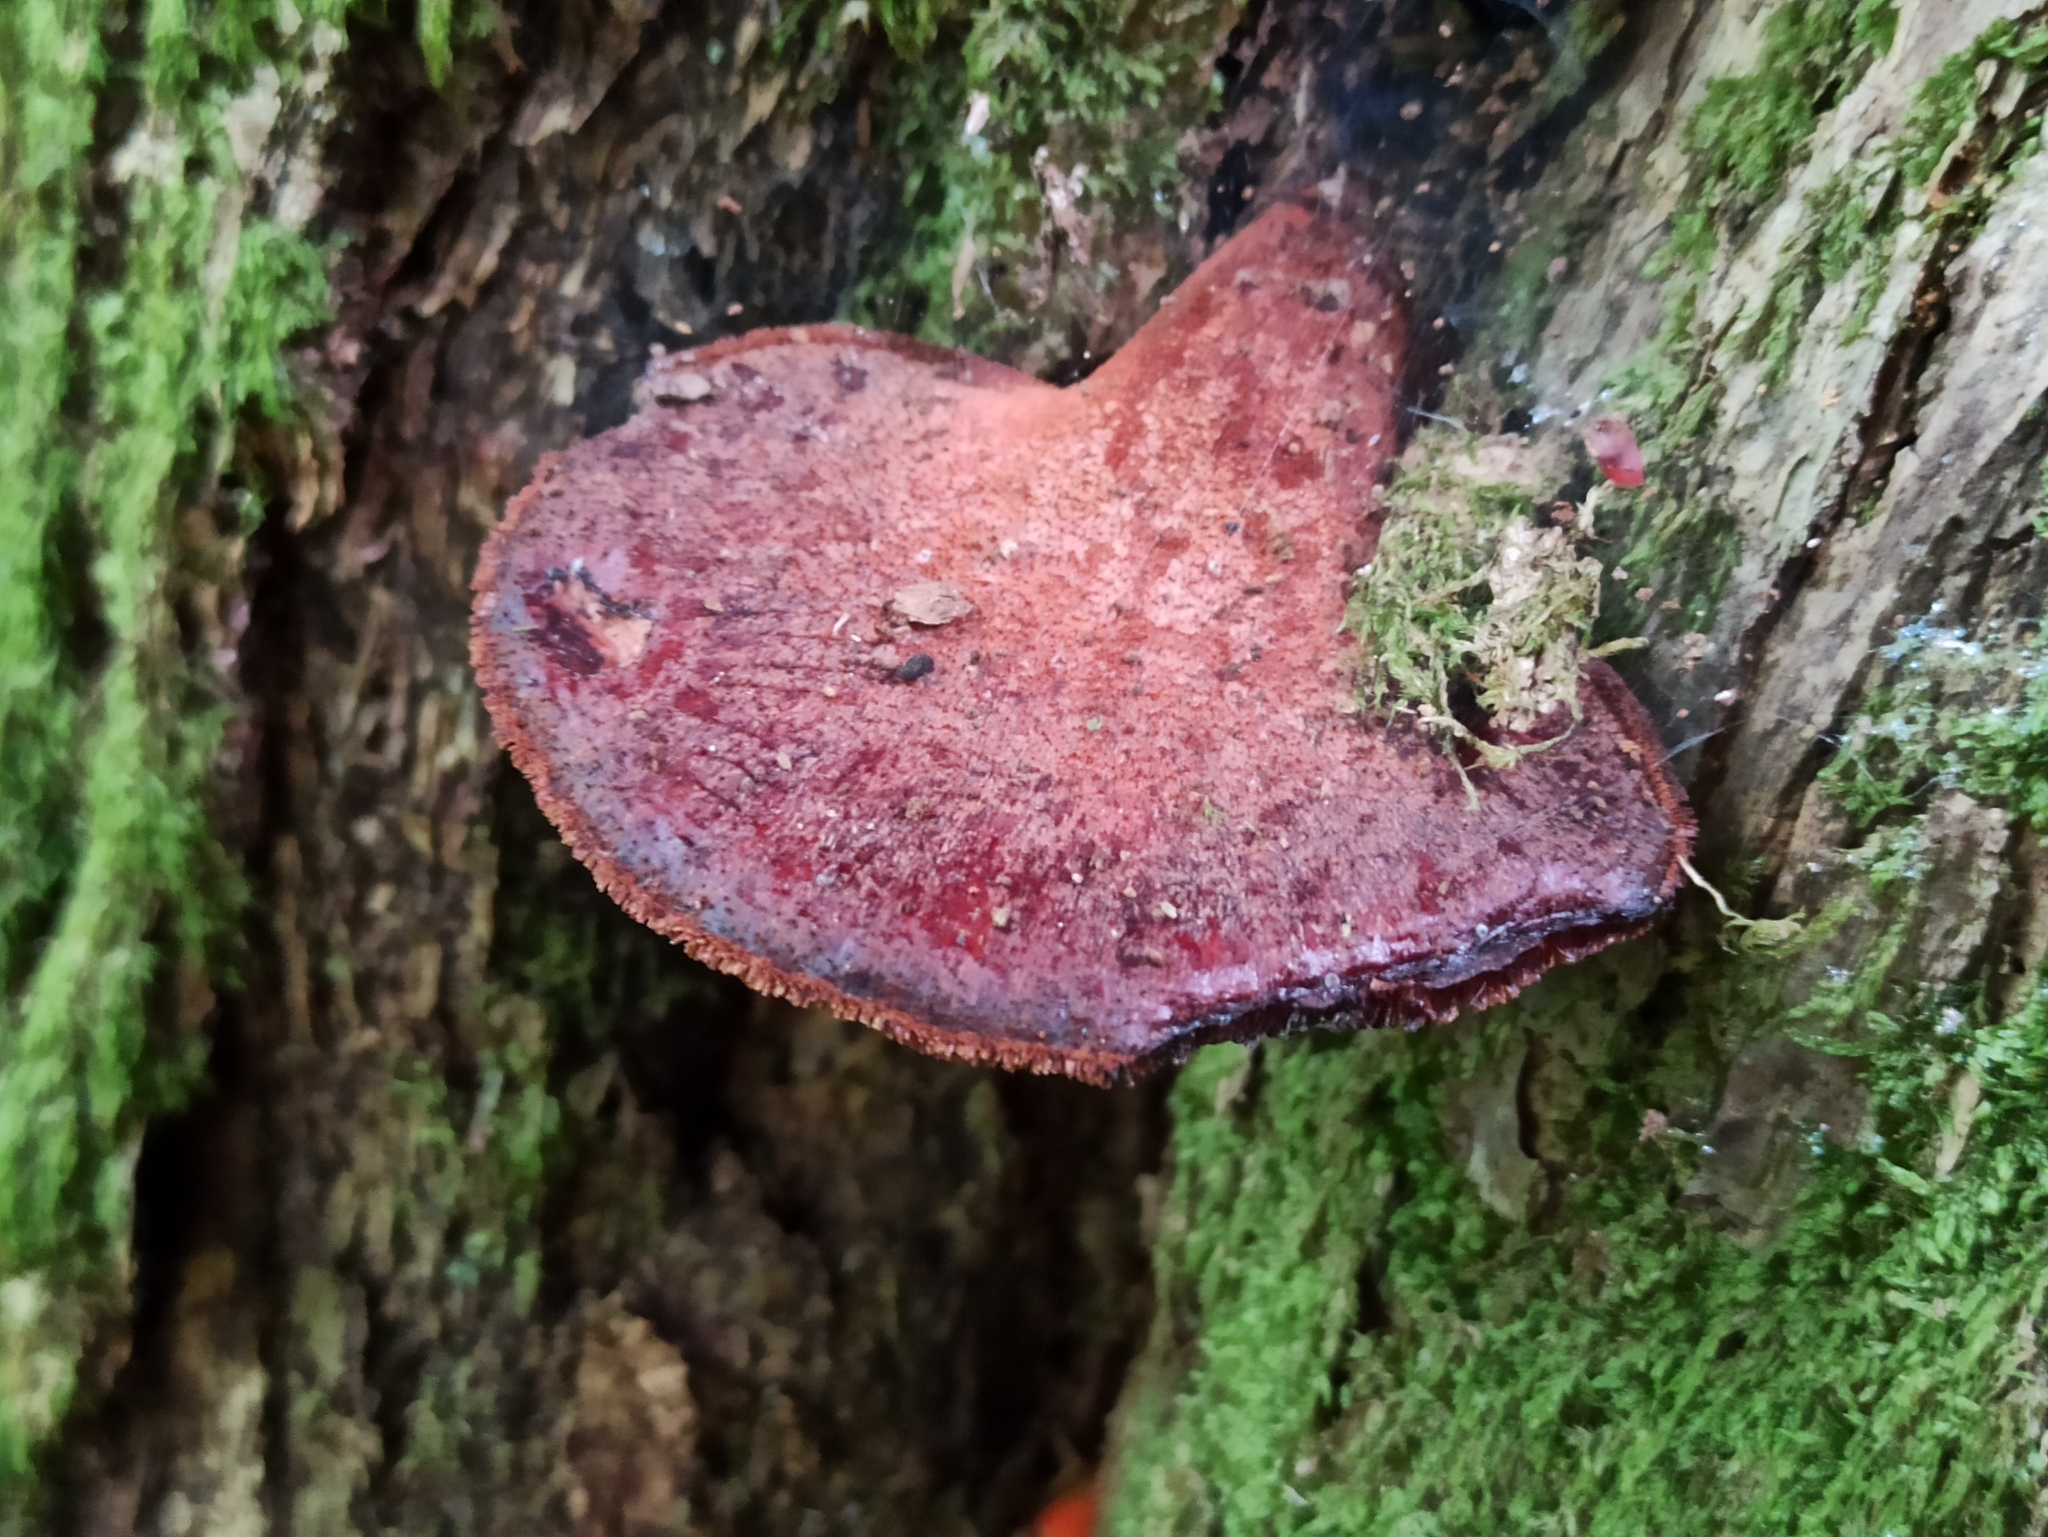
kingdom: Fungi
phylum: Basidiomycota
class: Agaricomycetes
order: Agaricales
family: Fistulinaceae
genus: Fistulina
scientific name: Fistulina hepatica
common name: Beef-steak fungus
